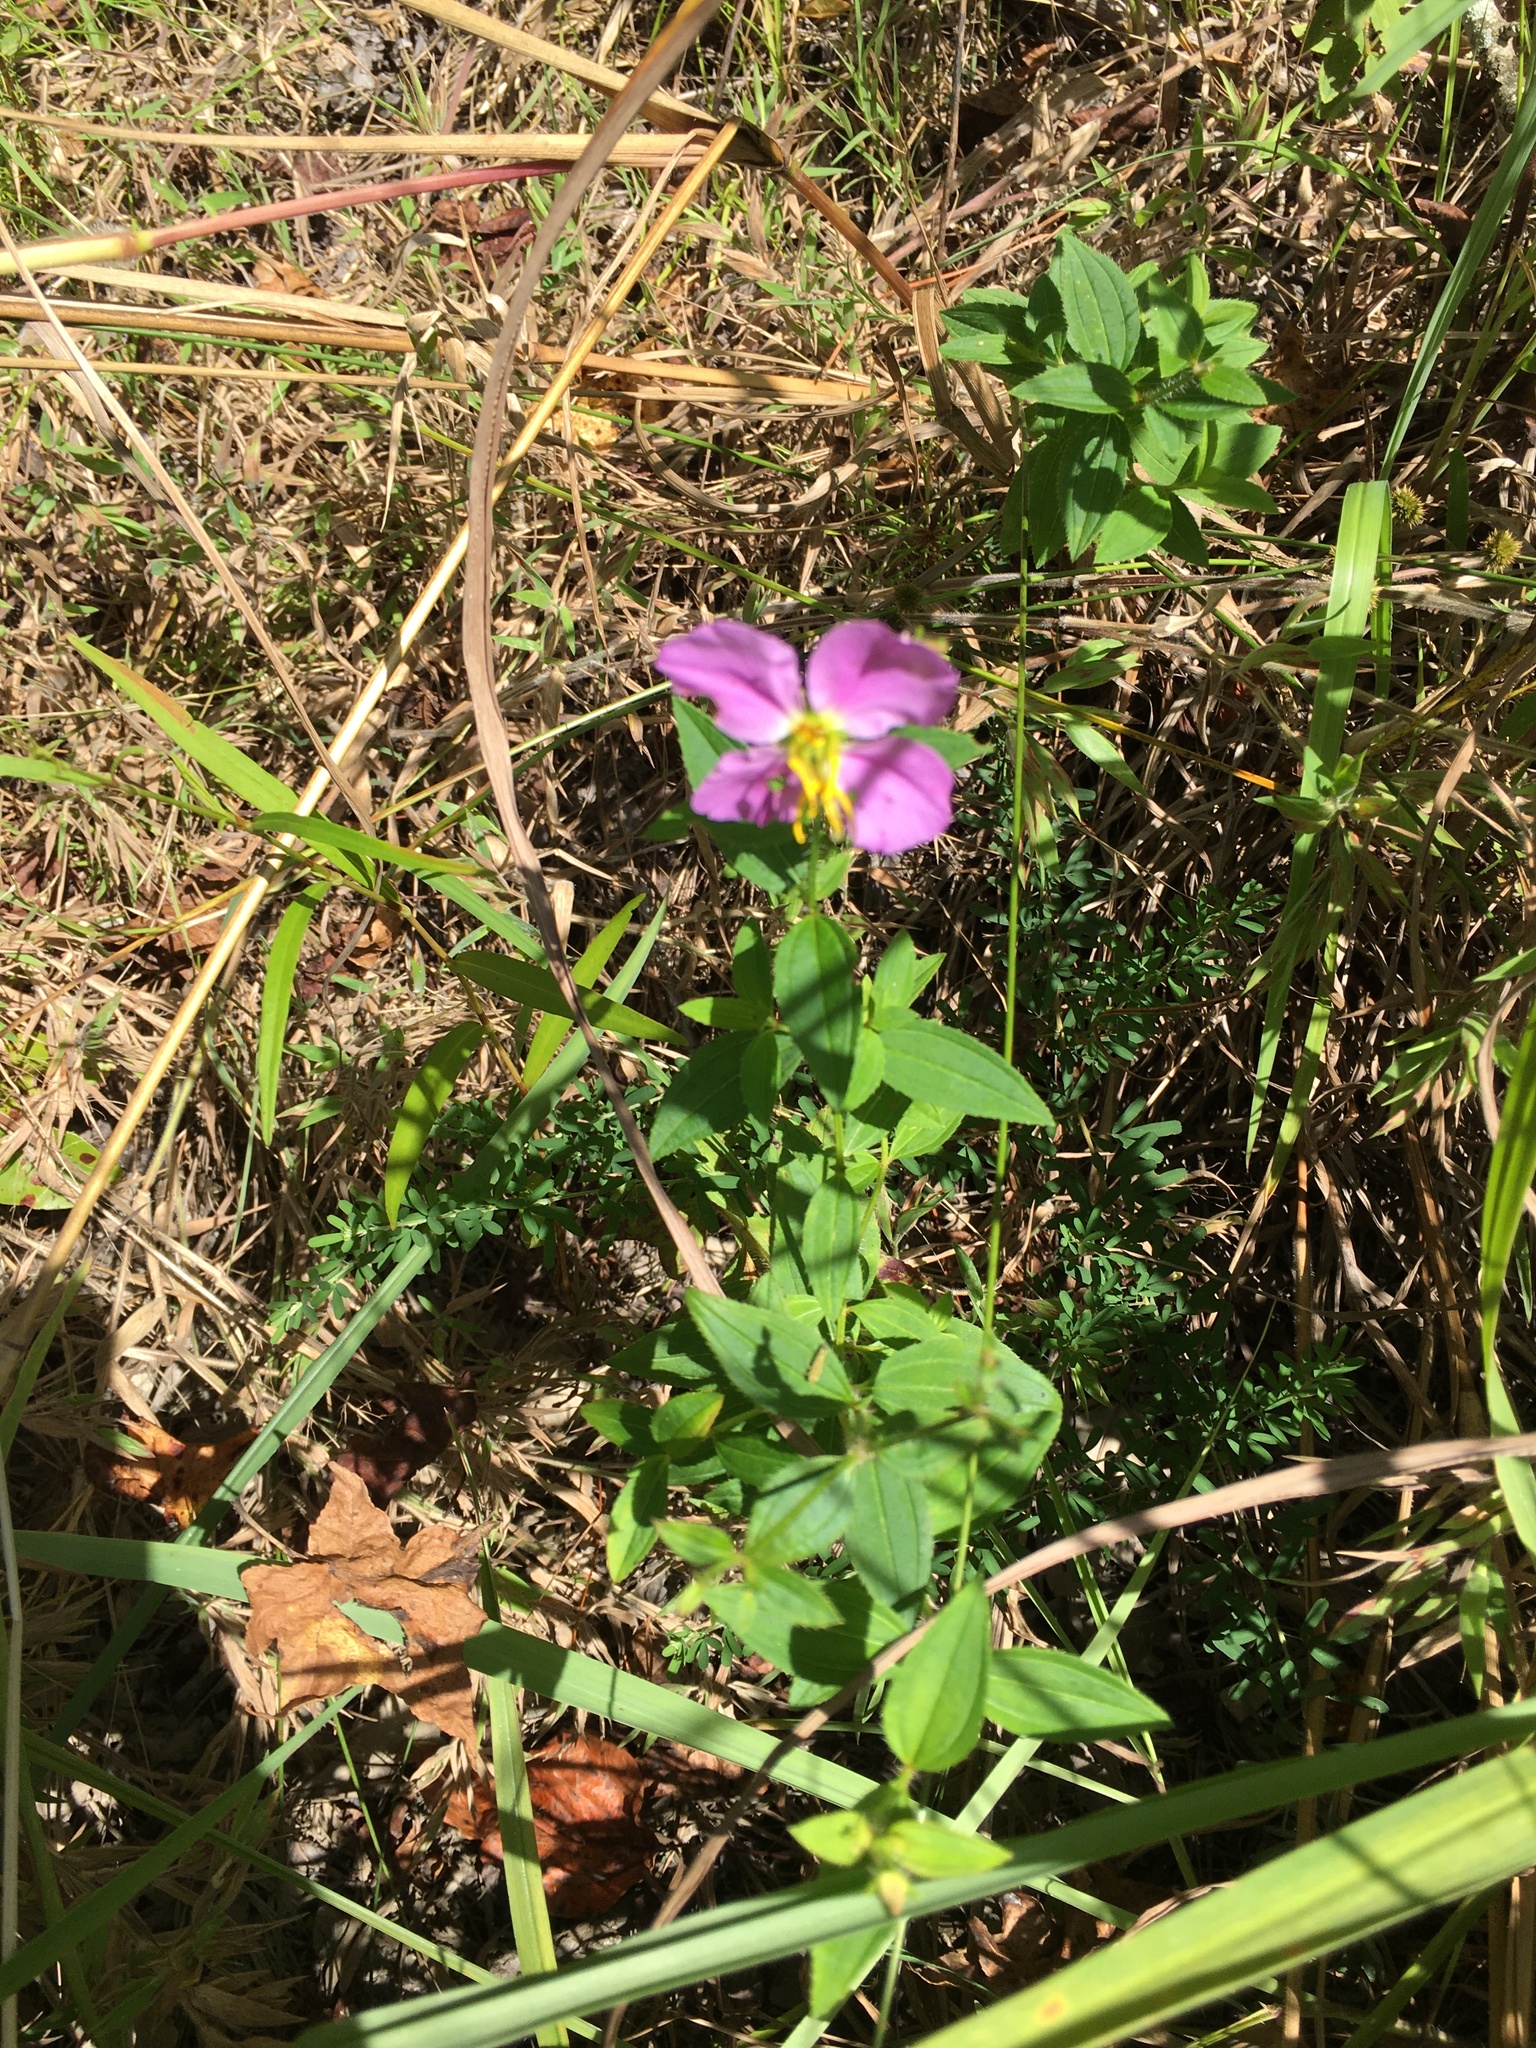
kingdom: Plantae
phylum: Tracheophyta
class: Magnoliopsida
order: Myrtales
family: Melastomataceae
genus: Rhexia
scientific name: Rhexia mariana
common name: Dull meadow-pitcher
